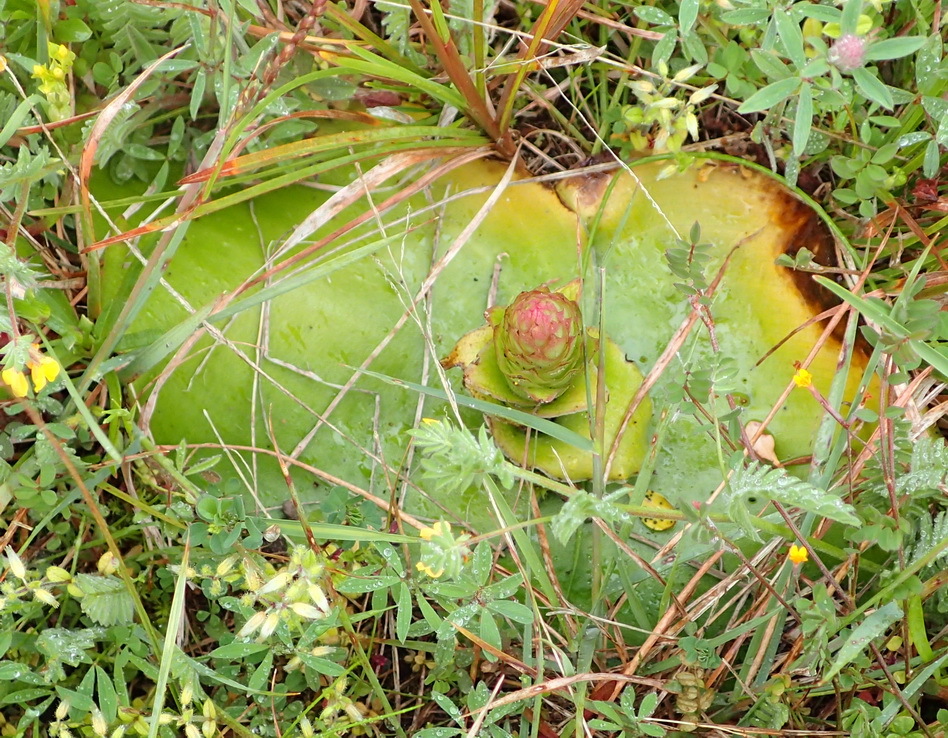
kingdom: Plantae
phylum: Tracheophyta
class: Liliopsida
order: Asparagales
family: Orchidaceae
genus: Satyrium
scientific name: Satyrium membranaceum
